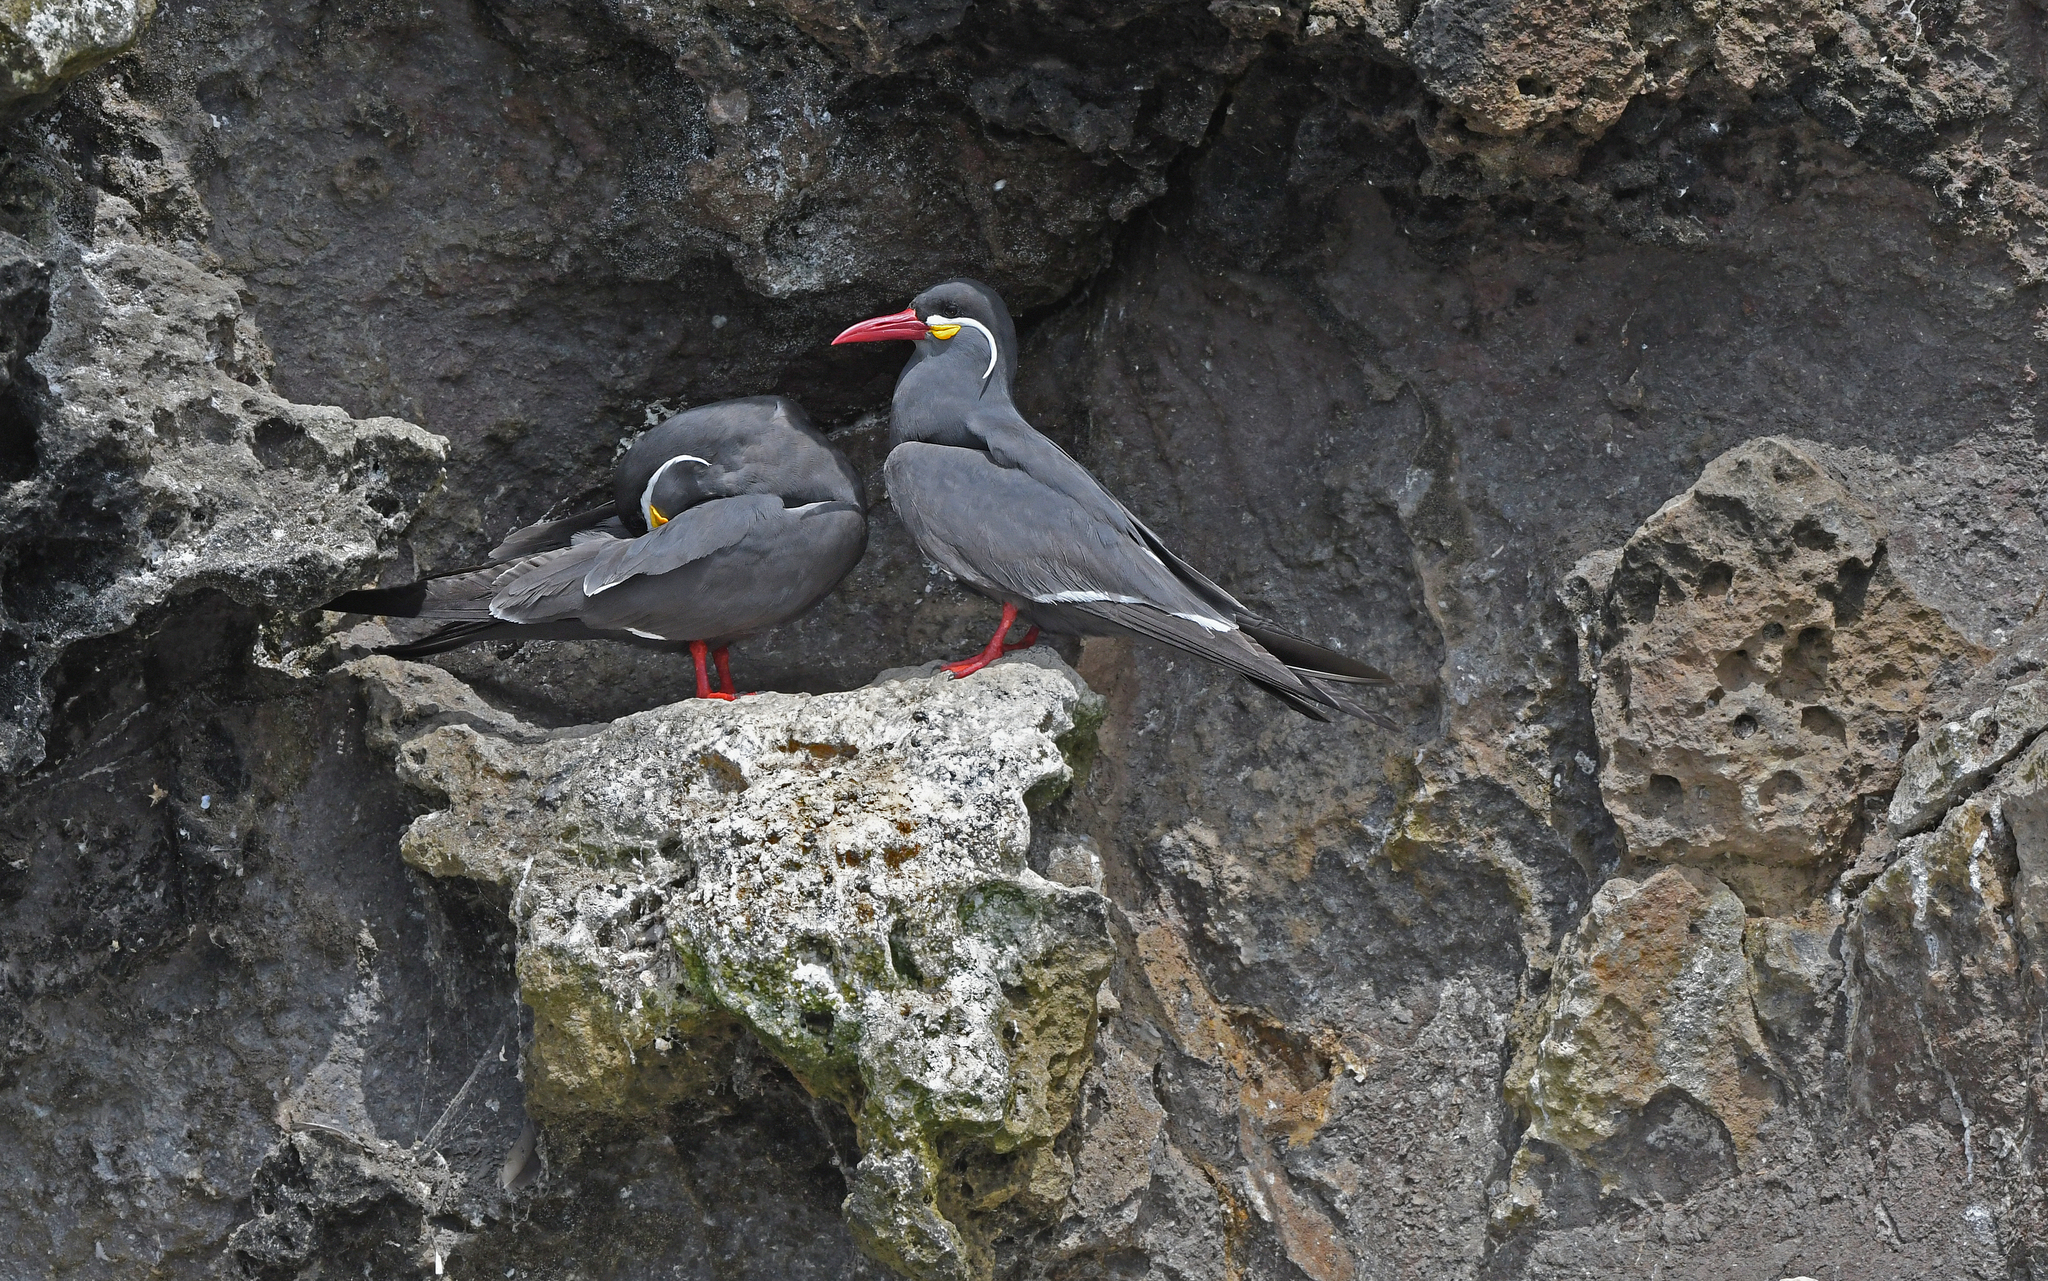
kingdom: Animalia
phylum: Chordata
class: Aves
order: Charadriiformes
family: Laridae
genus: Larosterna
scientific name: Larosterna inca
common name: Inca tern
